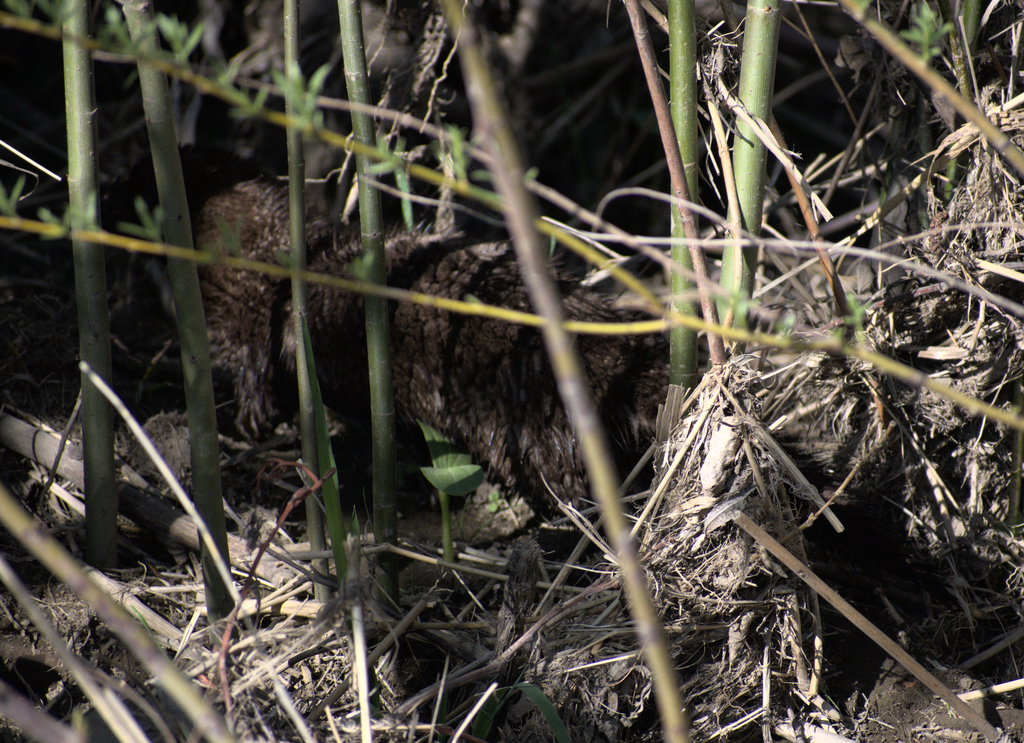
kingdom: Animalia
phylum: Chordata
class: Mammalia
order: Carnivora
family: Mustelidae
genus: Mustela
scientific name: Mustela
